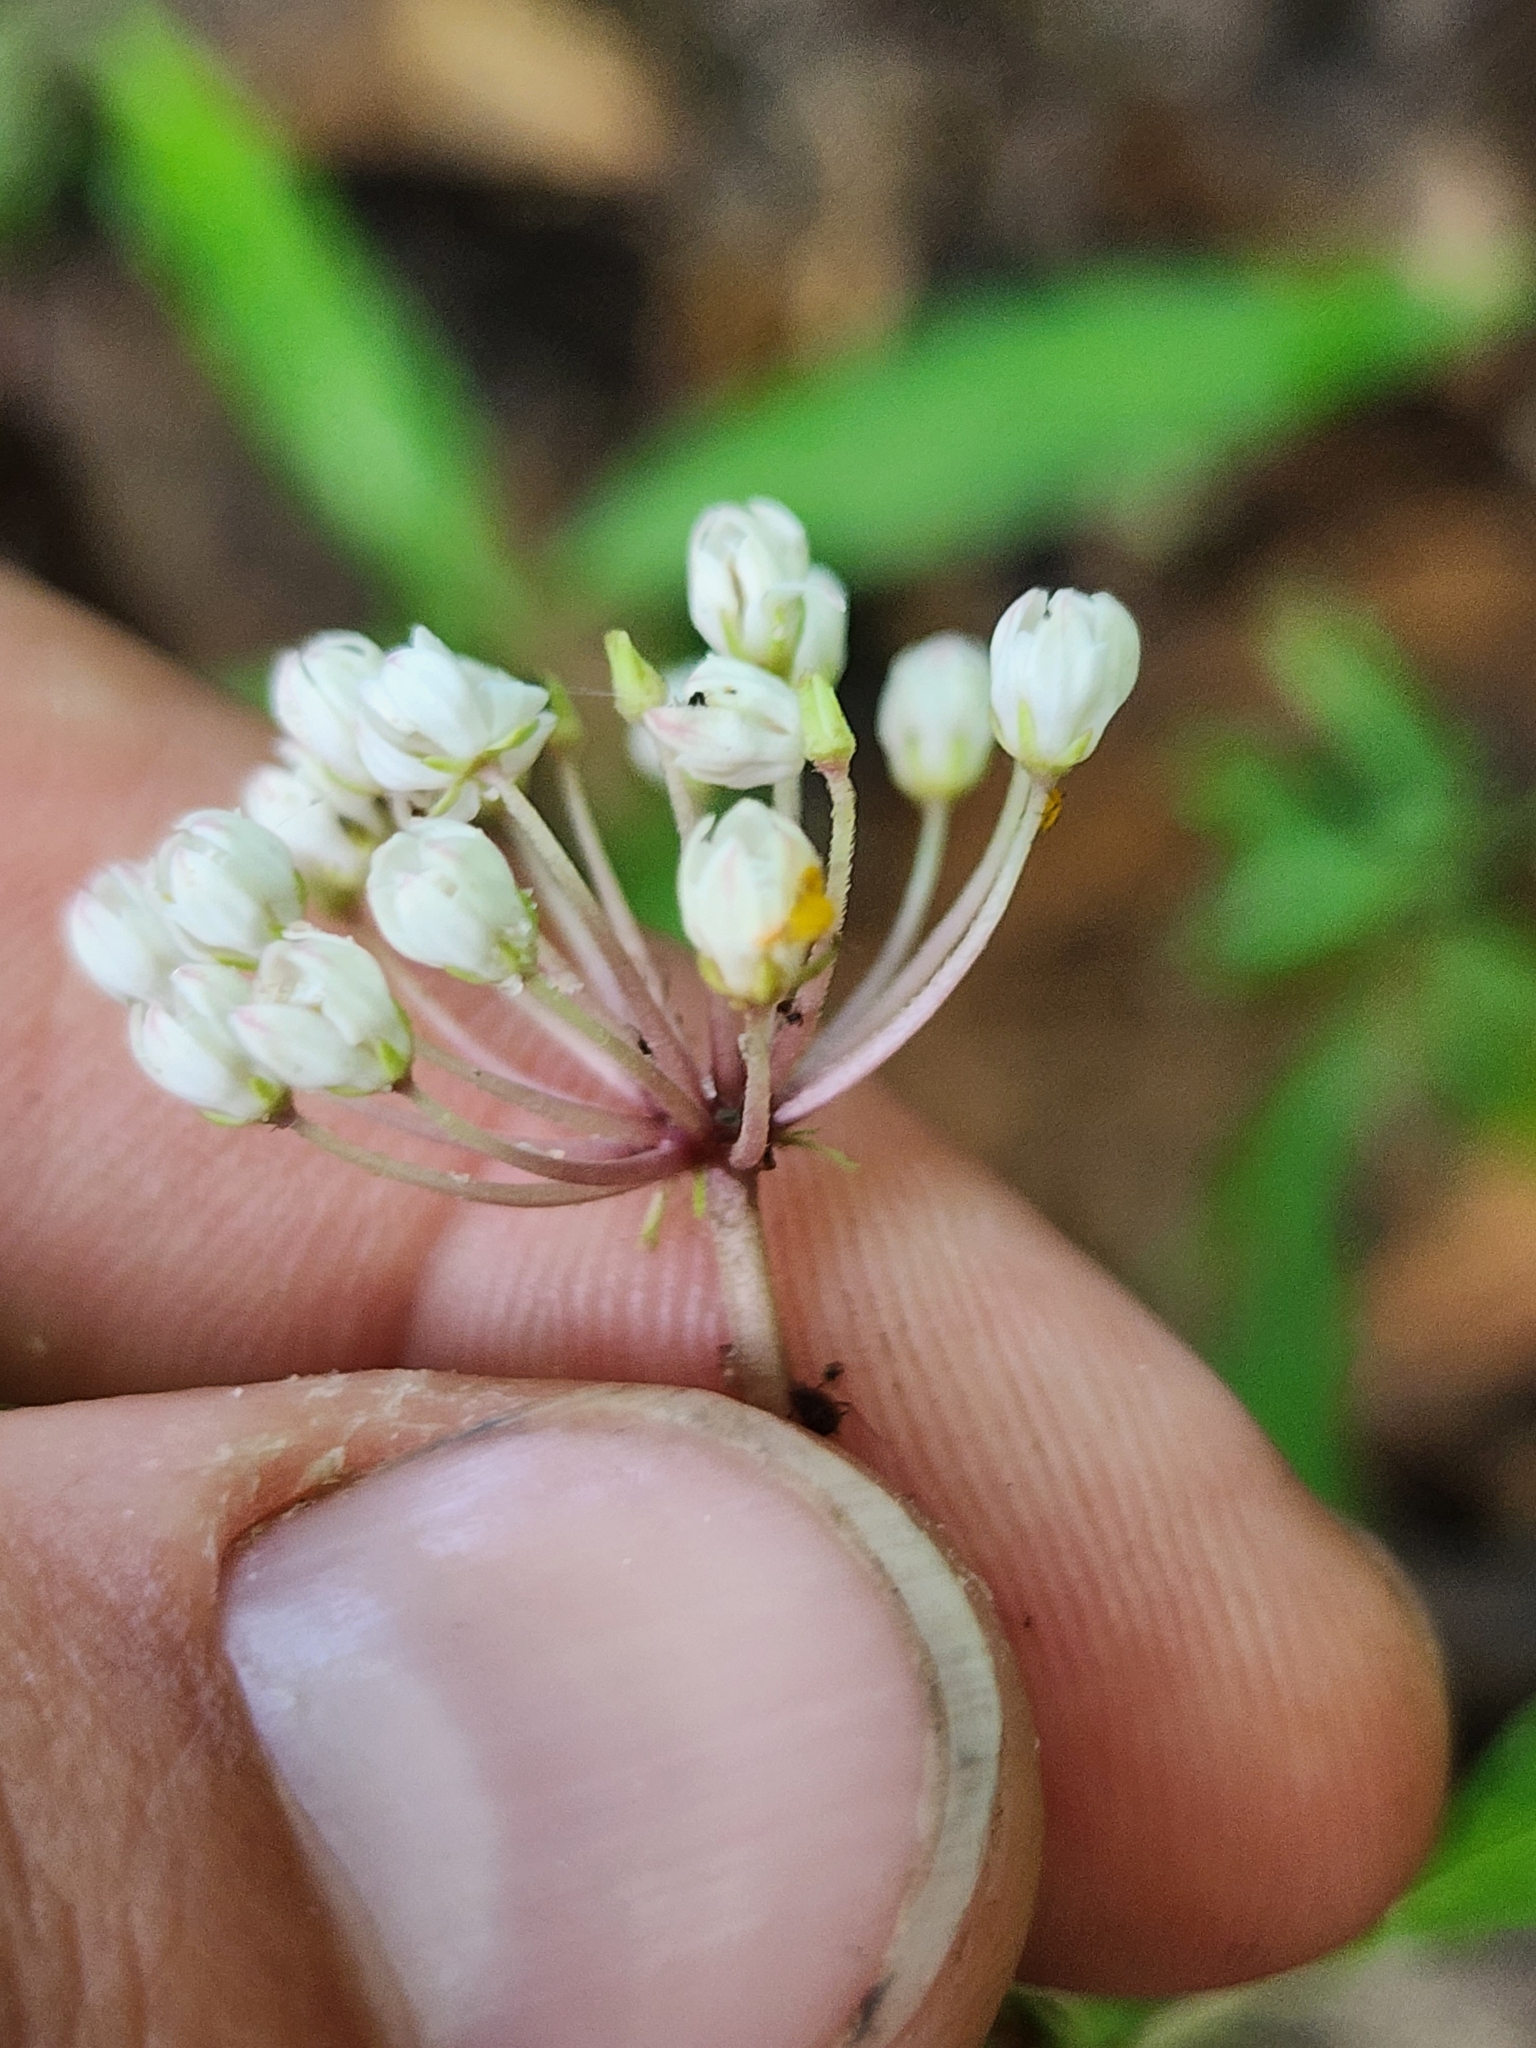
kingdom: Plantae
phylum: Tracheophyta
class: Magnoliopsida
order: Gentianales
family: Apocynaceae
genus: Asclepias
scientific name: Asclepias perennis
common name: Smooth-seed milkweed
